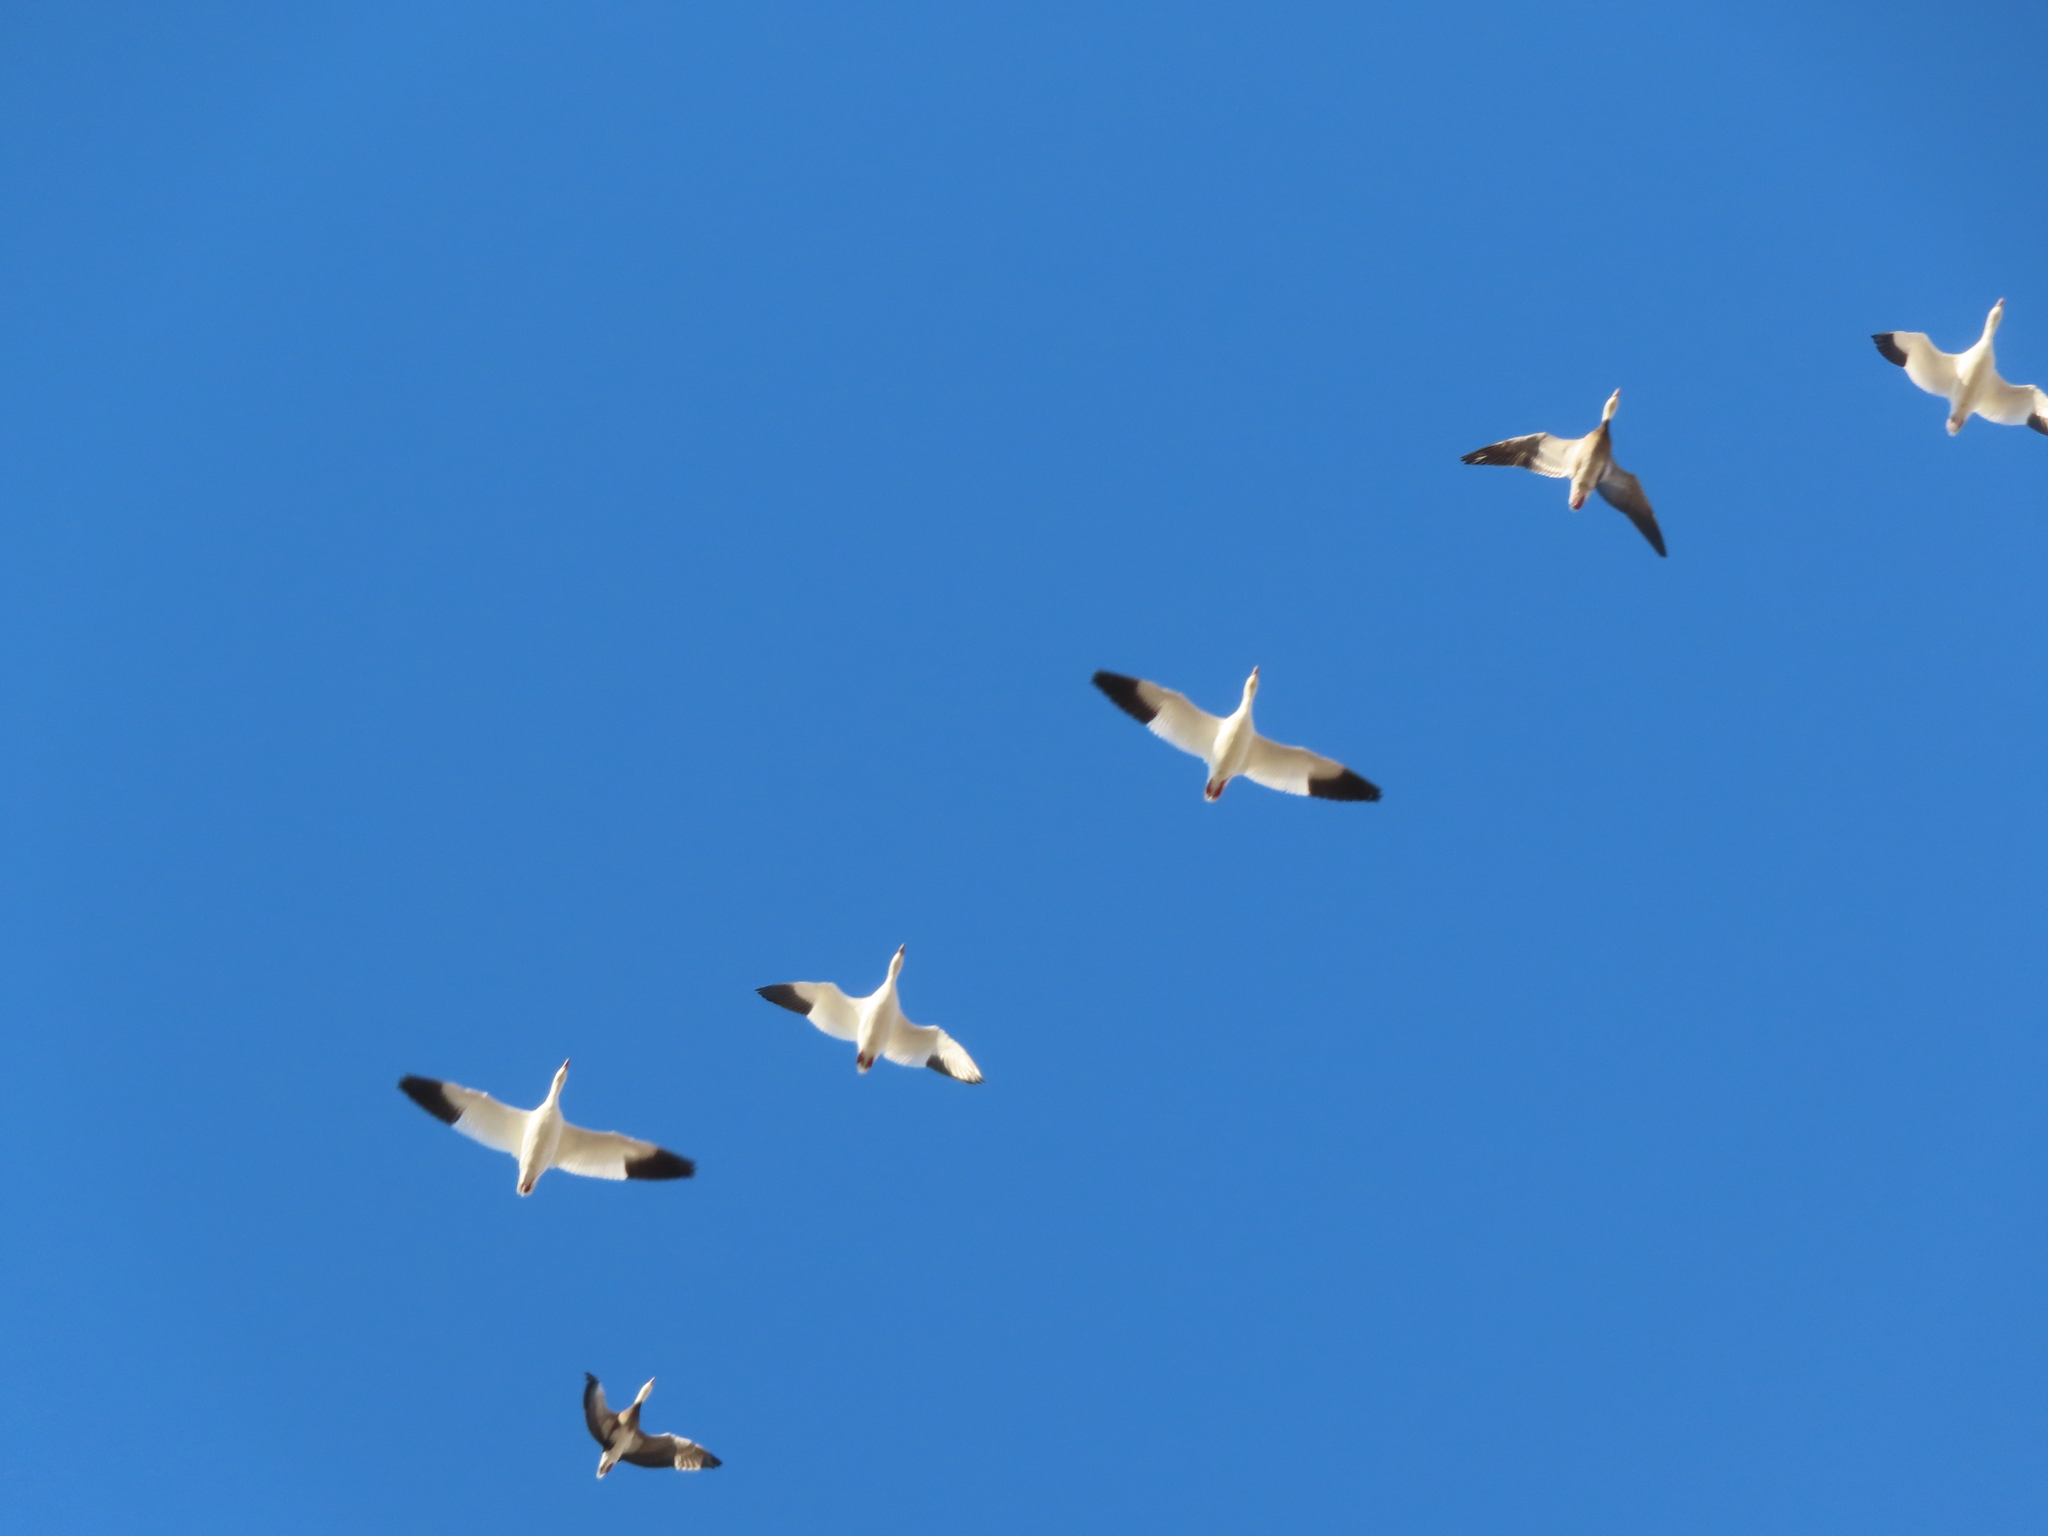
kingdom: Animalia
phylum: Chordata
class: Aves
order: Anseriformes
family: Anatidae
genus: Anser
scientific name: Anser caerulescens
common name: Snow goose
